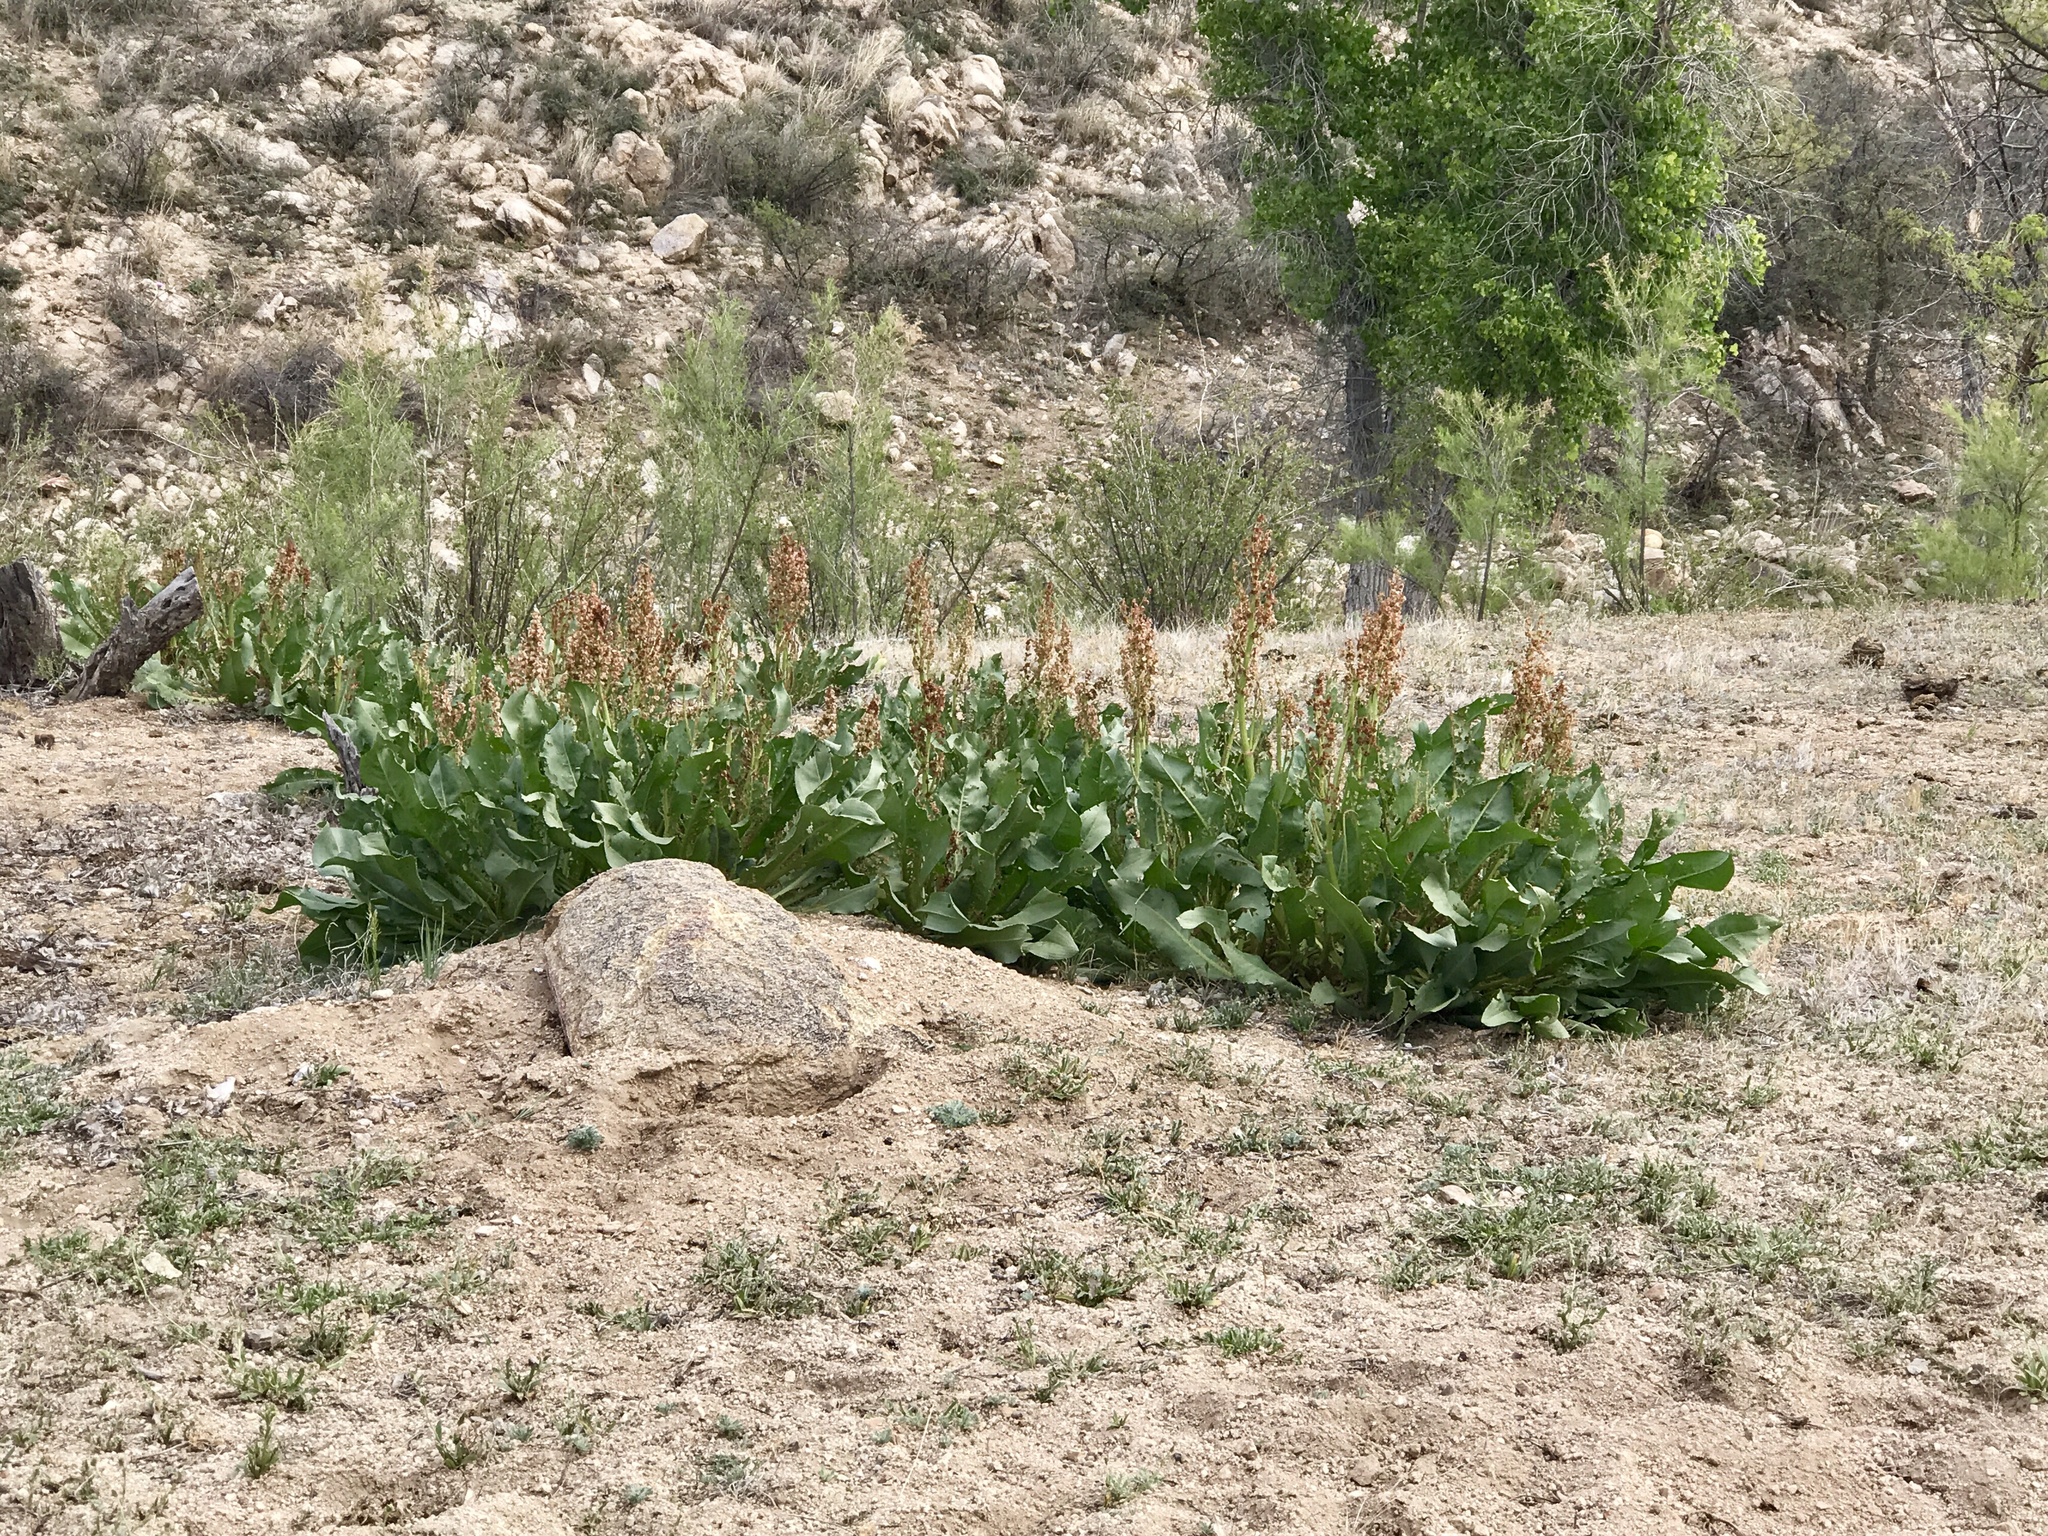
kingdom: Plantae
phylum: Tracheophyta
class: Magnoliopsida
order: Caryophyllales
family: Polygonaceae
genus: Rumex
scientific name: Rumex hymenosepalus
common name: Ganagra
